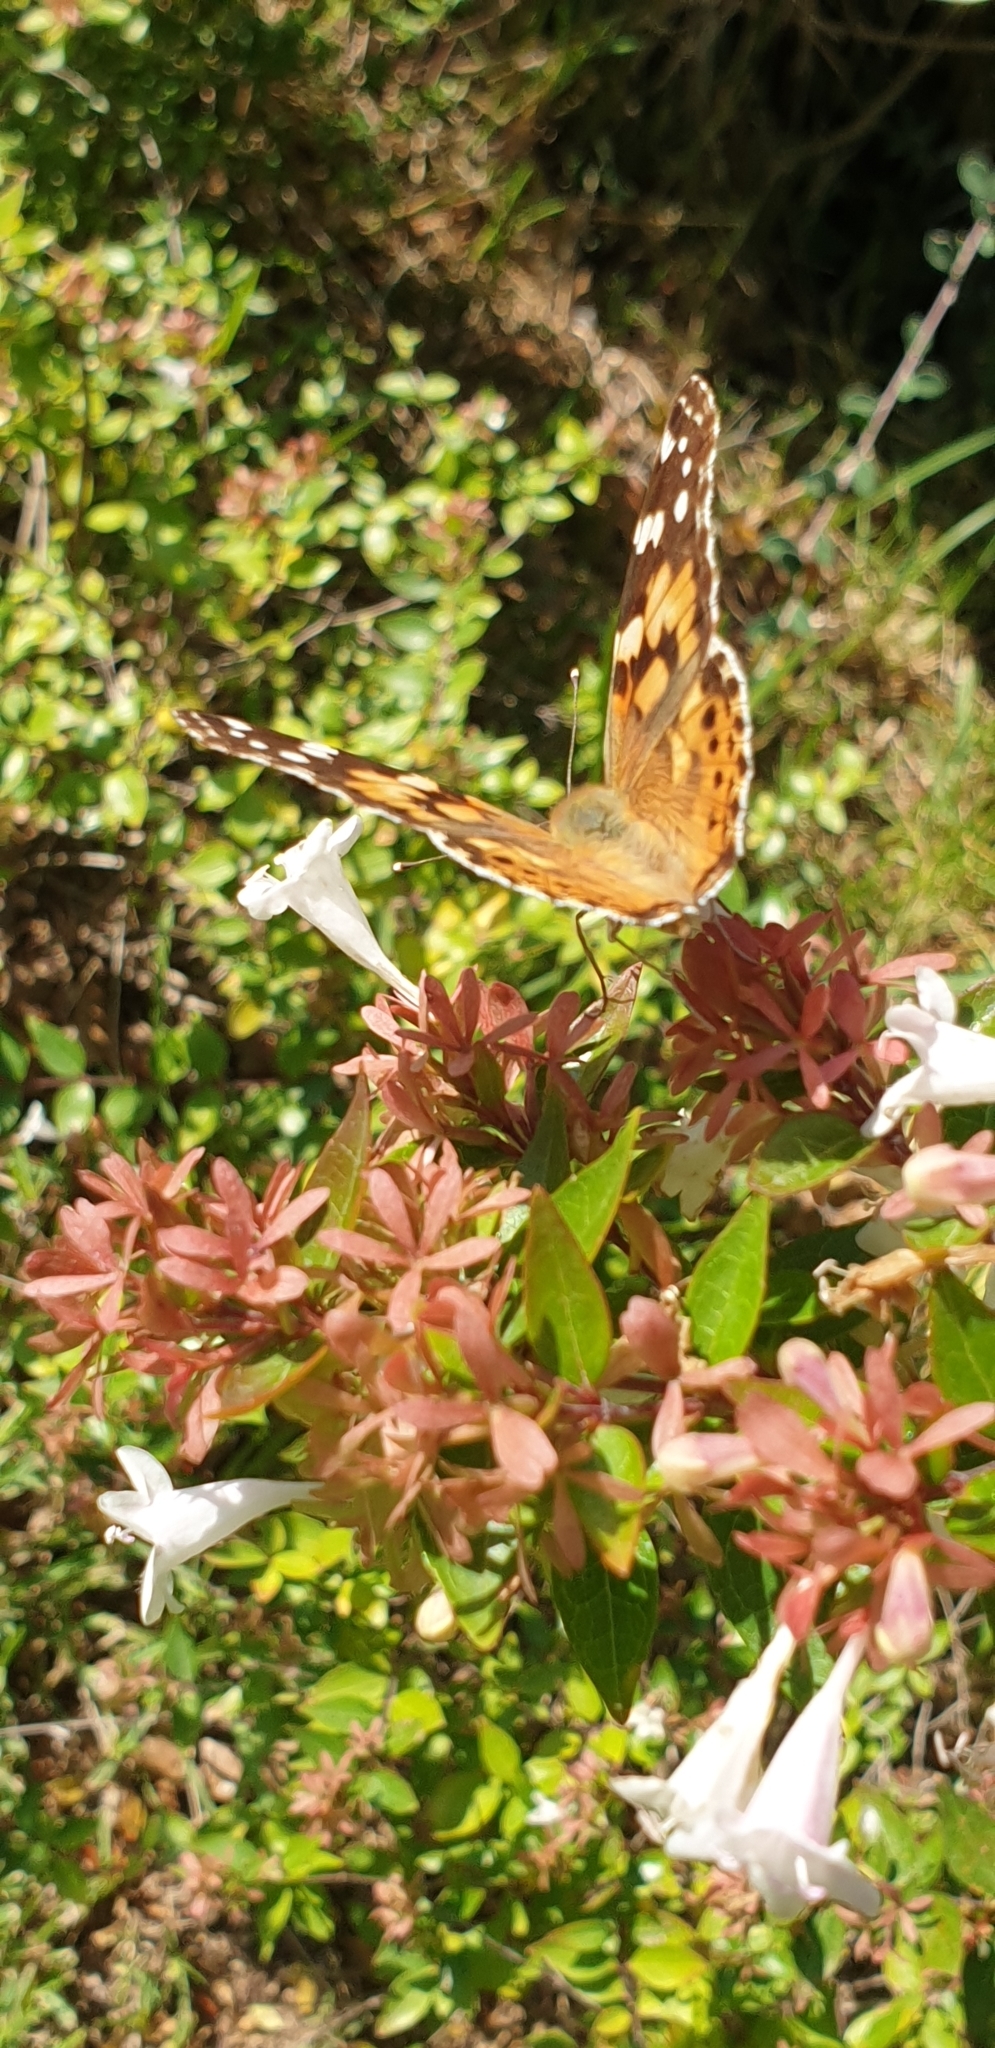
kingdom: Animalia
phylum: Arthropoda
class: Insecta
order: Lepidoptera
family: Nymphalidae
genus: Vanessa
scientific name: Vanessa cardui
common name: Painted lady
